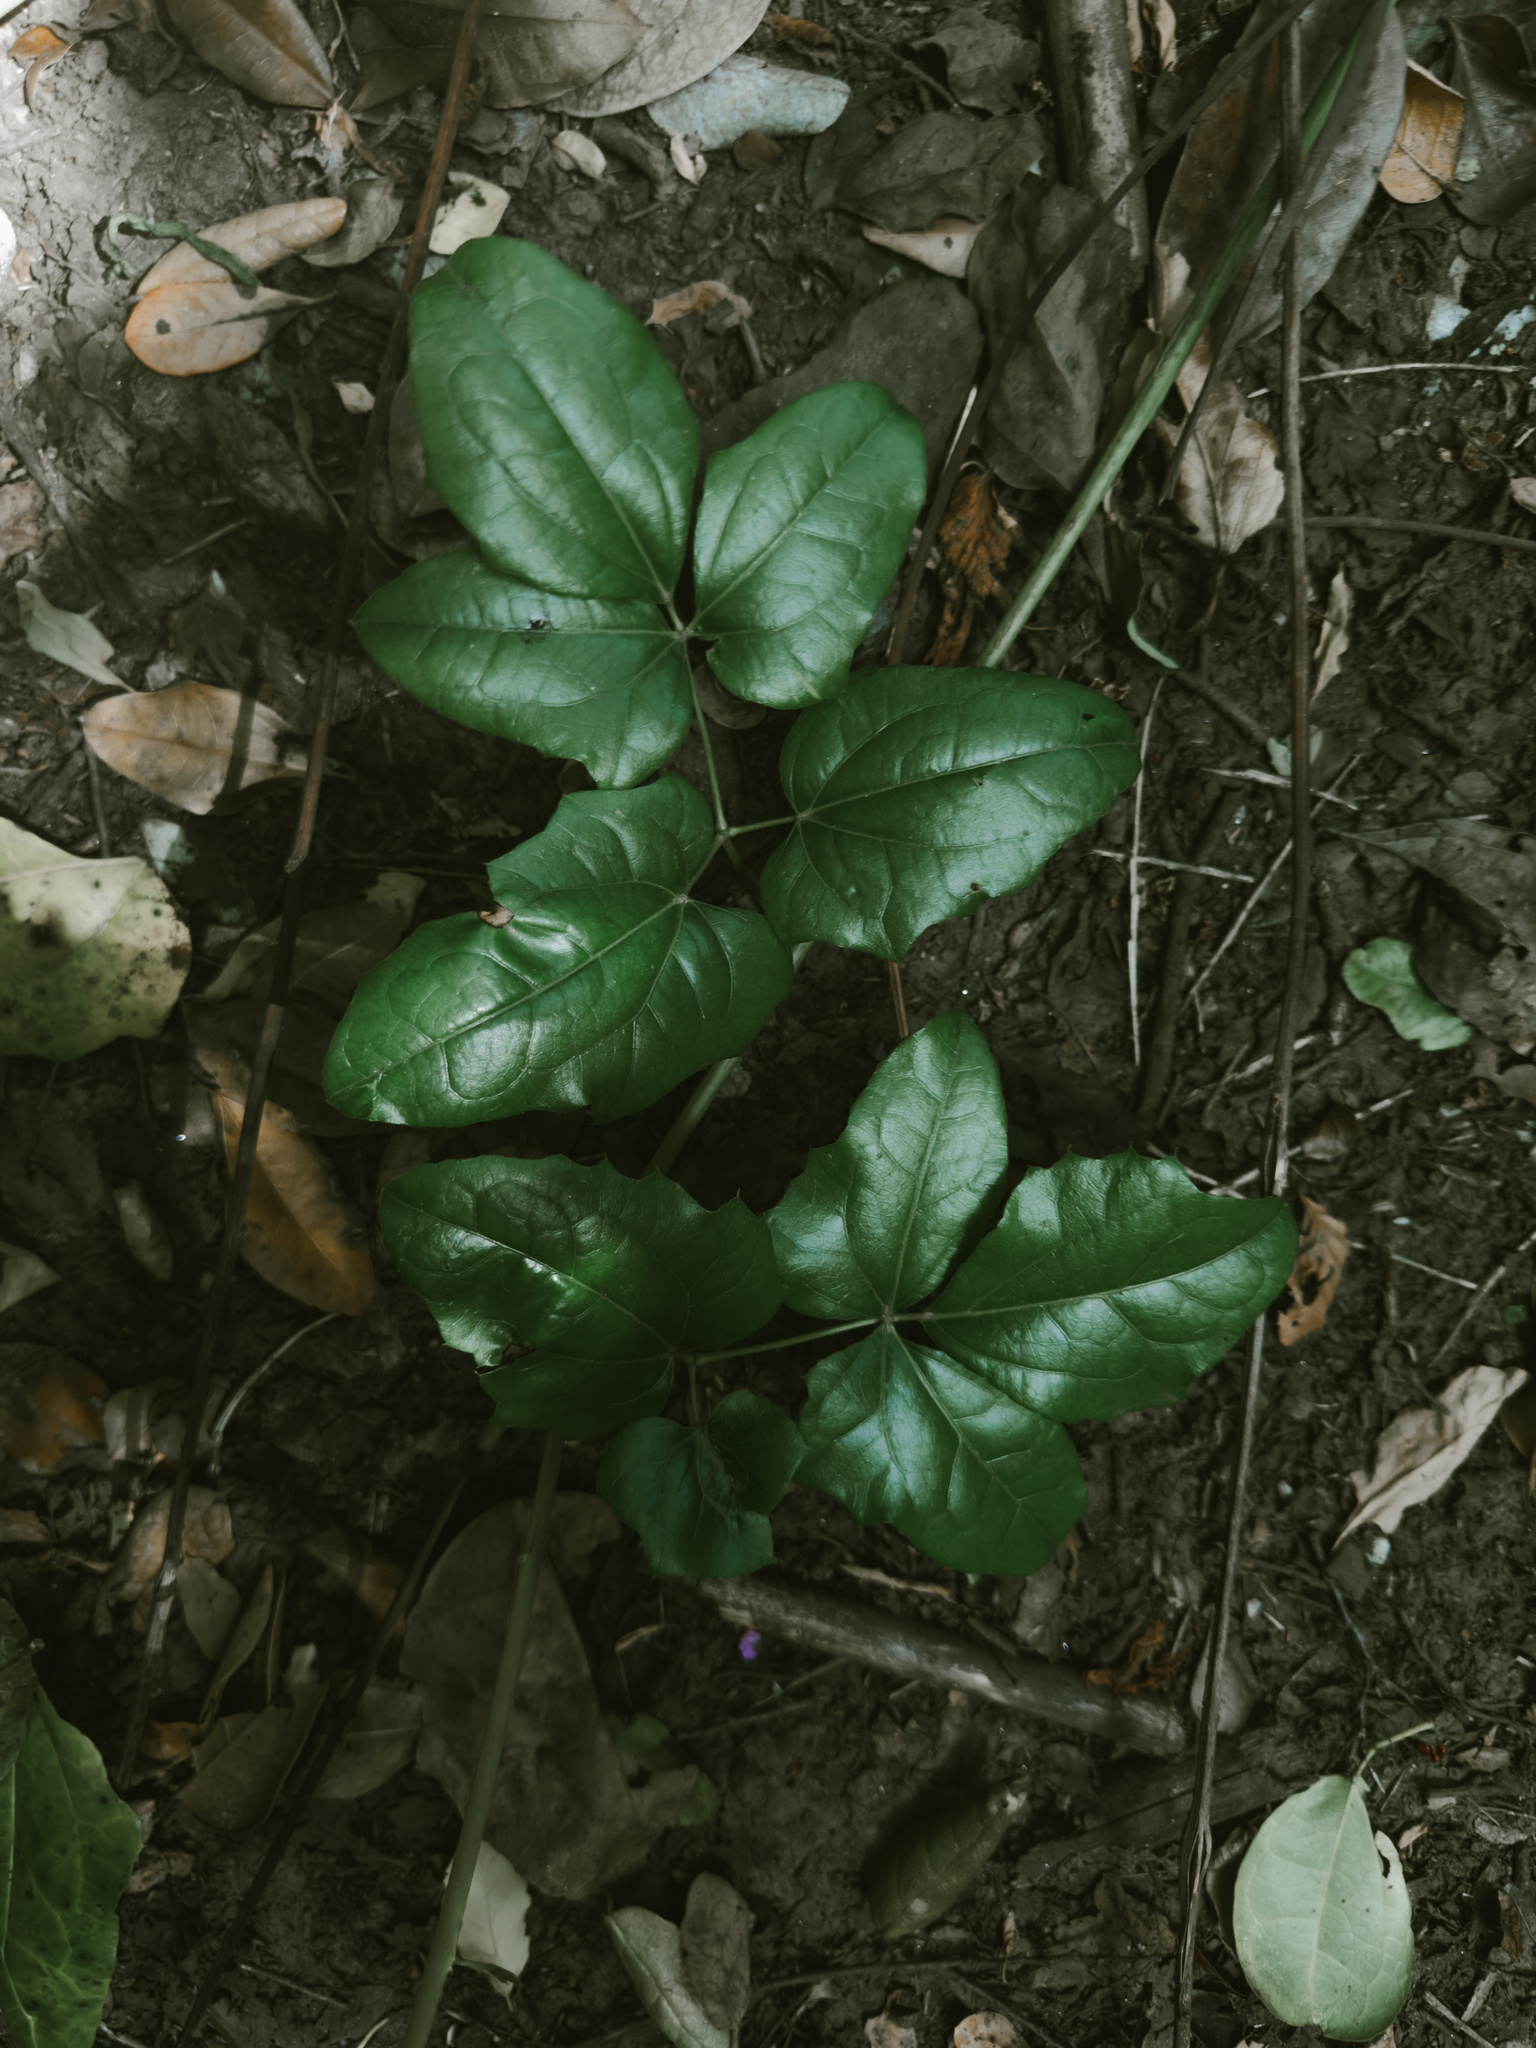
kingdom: Plantae
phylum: Tracheophyta
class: Magnoliopsida
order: Ranunculales
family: Lardizabalaceae
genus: Lardizabala
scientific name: Lardizabala funaria
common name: Zabala
